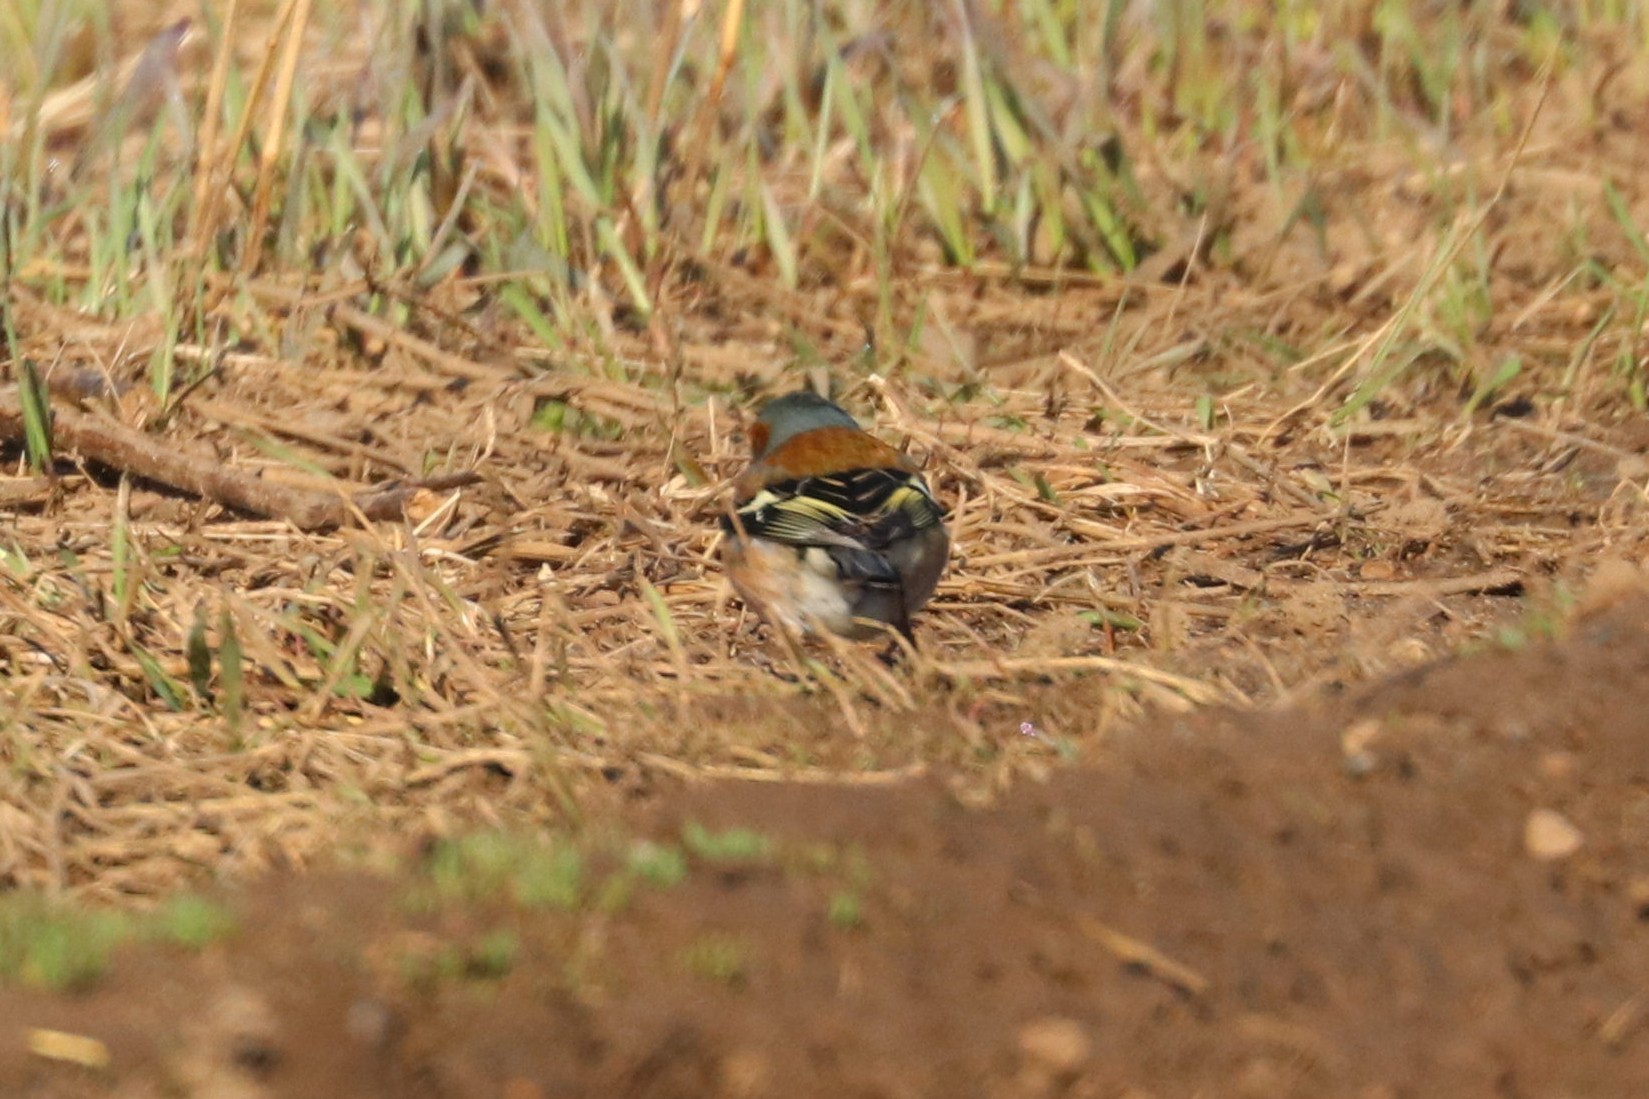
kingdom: Animalia
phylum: Chordata
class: Aves
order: Passeriformes
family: Fringillidae
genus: Fringilla
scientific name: Fringilla coelebs
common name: Common chaffinch
